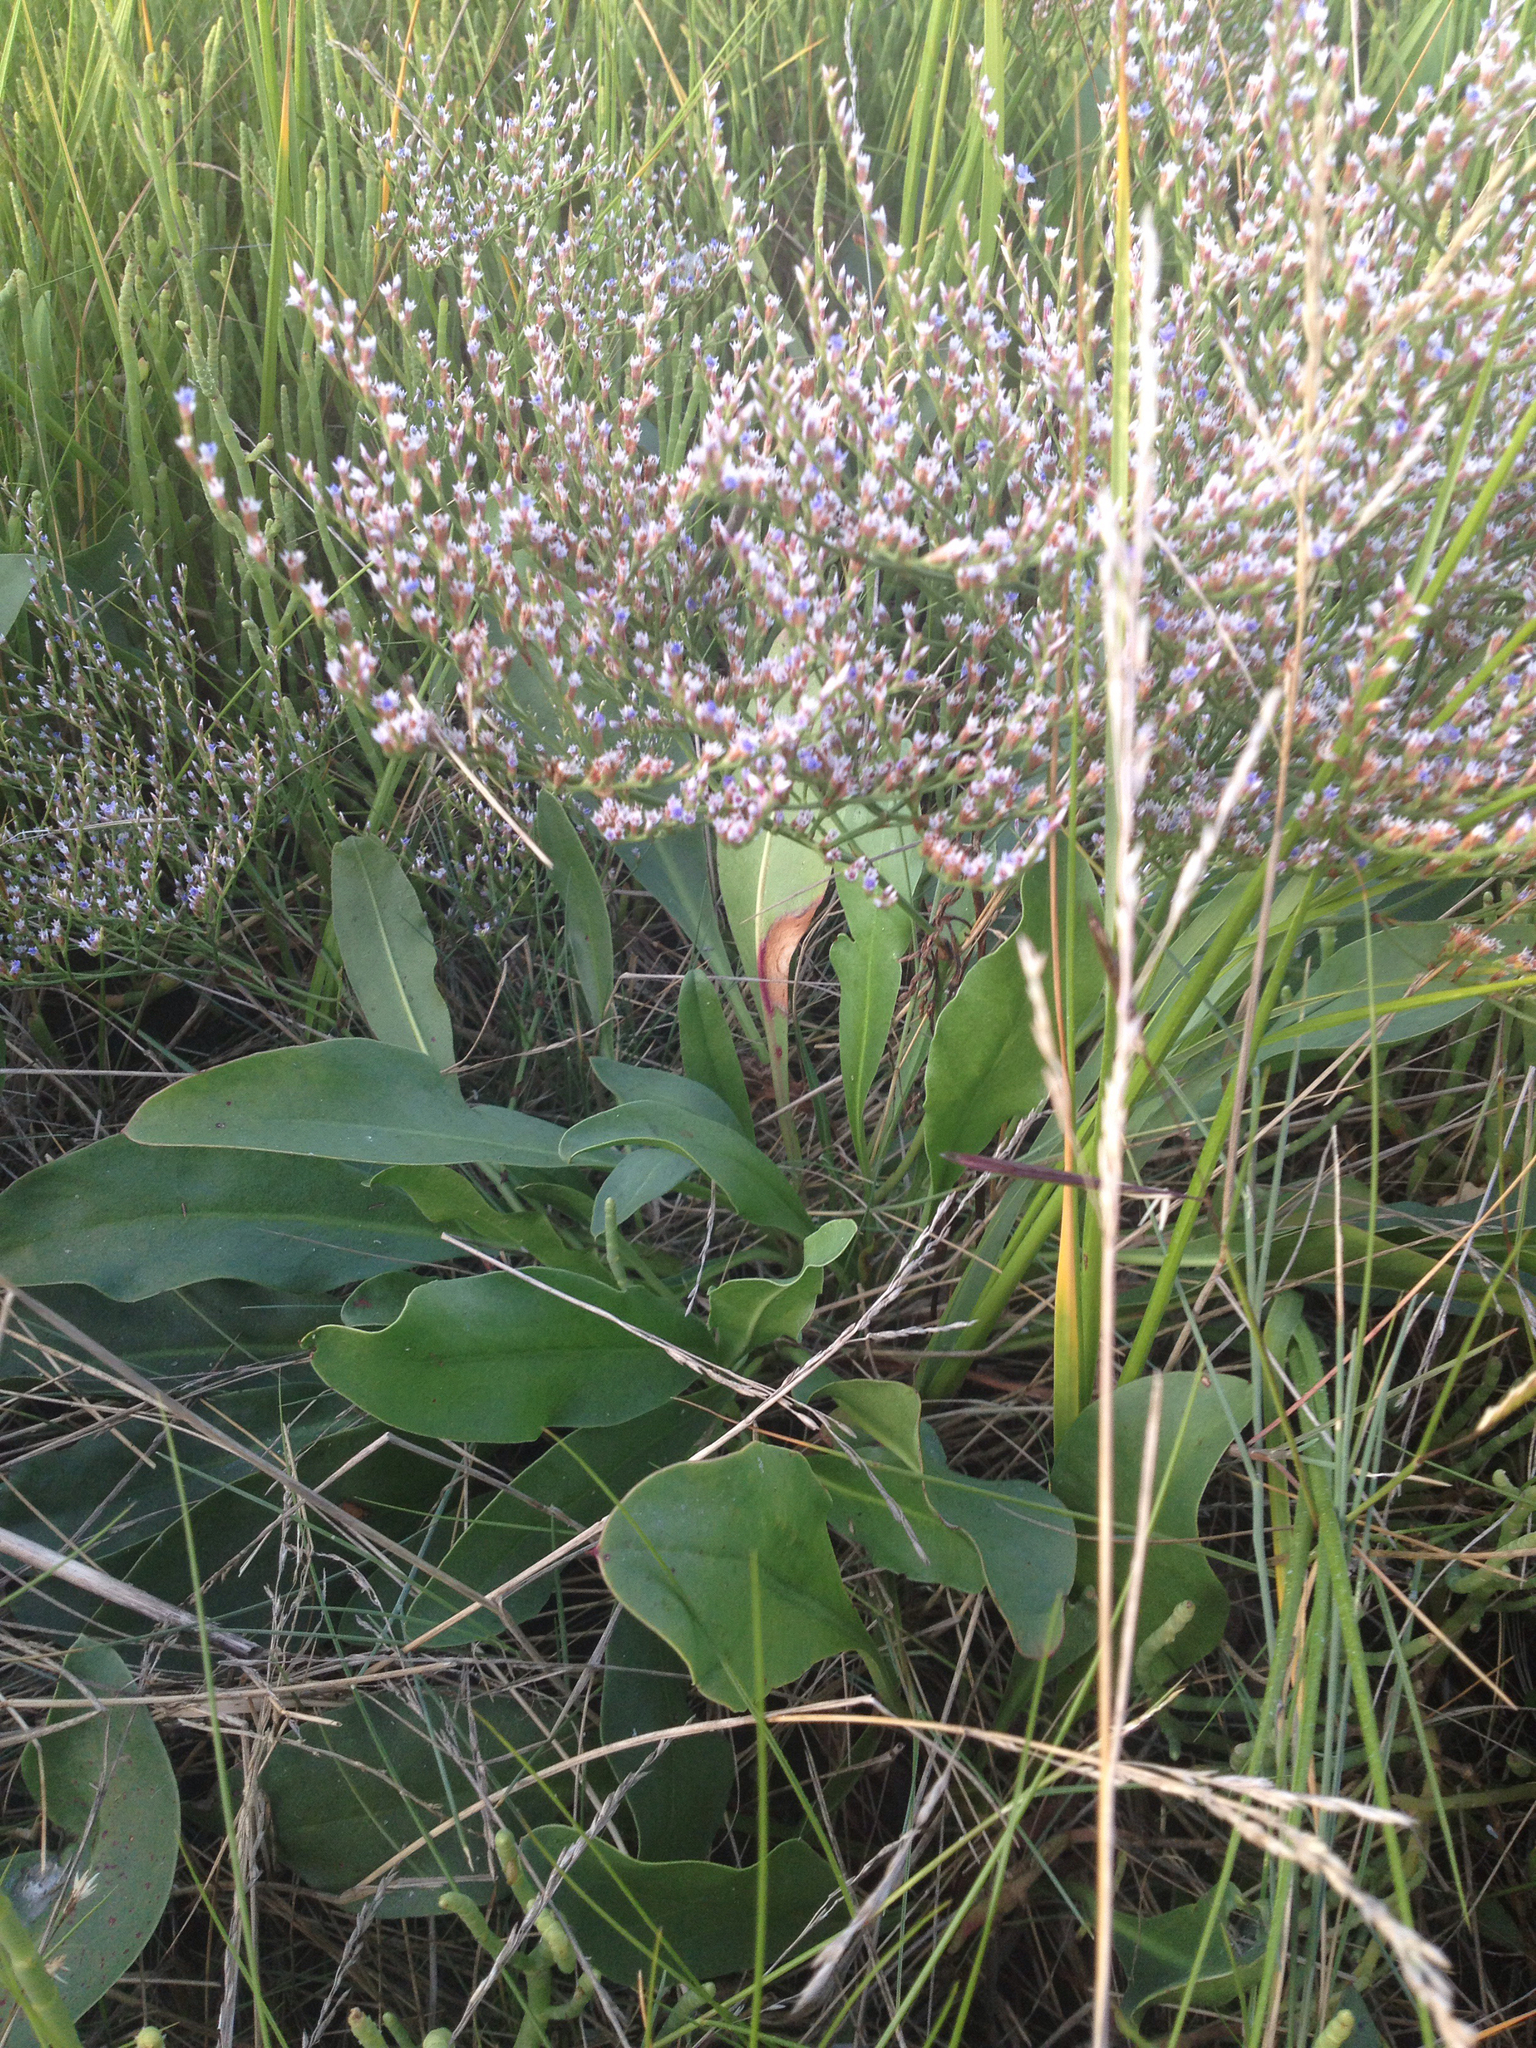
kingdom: Plantae
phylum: Tracheophyta
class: Magnoliopsida
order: Caryophyllales
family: Plumbaginaceae
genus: Limonium
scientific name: Limonium carolinianum
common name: Carolina sea lavender
